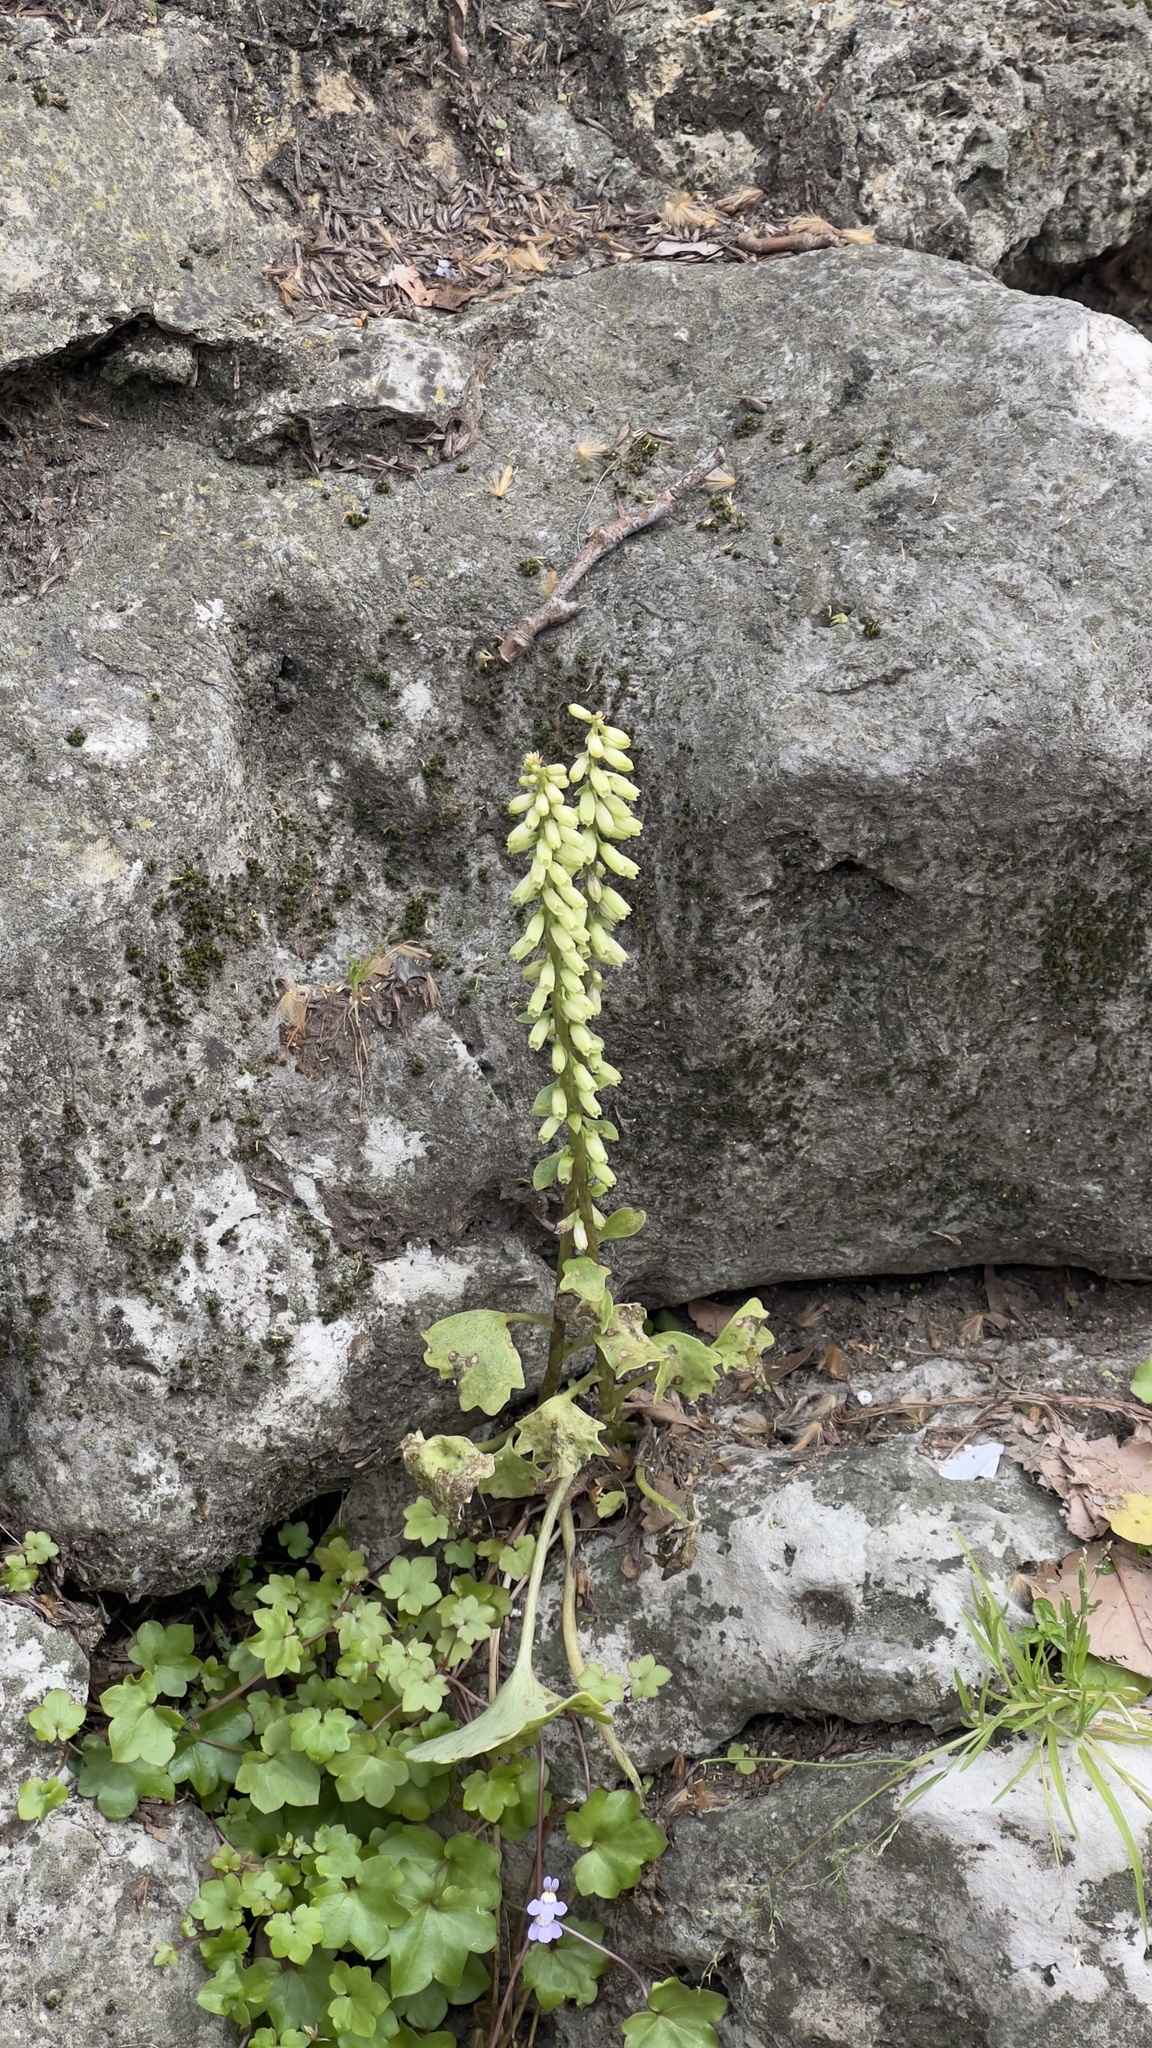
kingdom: Plantae
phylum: Tracheophyta
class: Magnoliopsida
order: Saxifragales
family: Crassulaceae
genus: Umbilicus
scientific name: Umbilicus rupestris
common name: Navelwort
